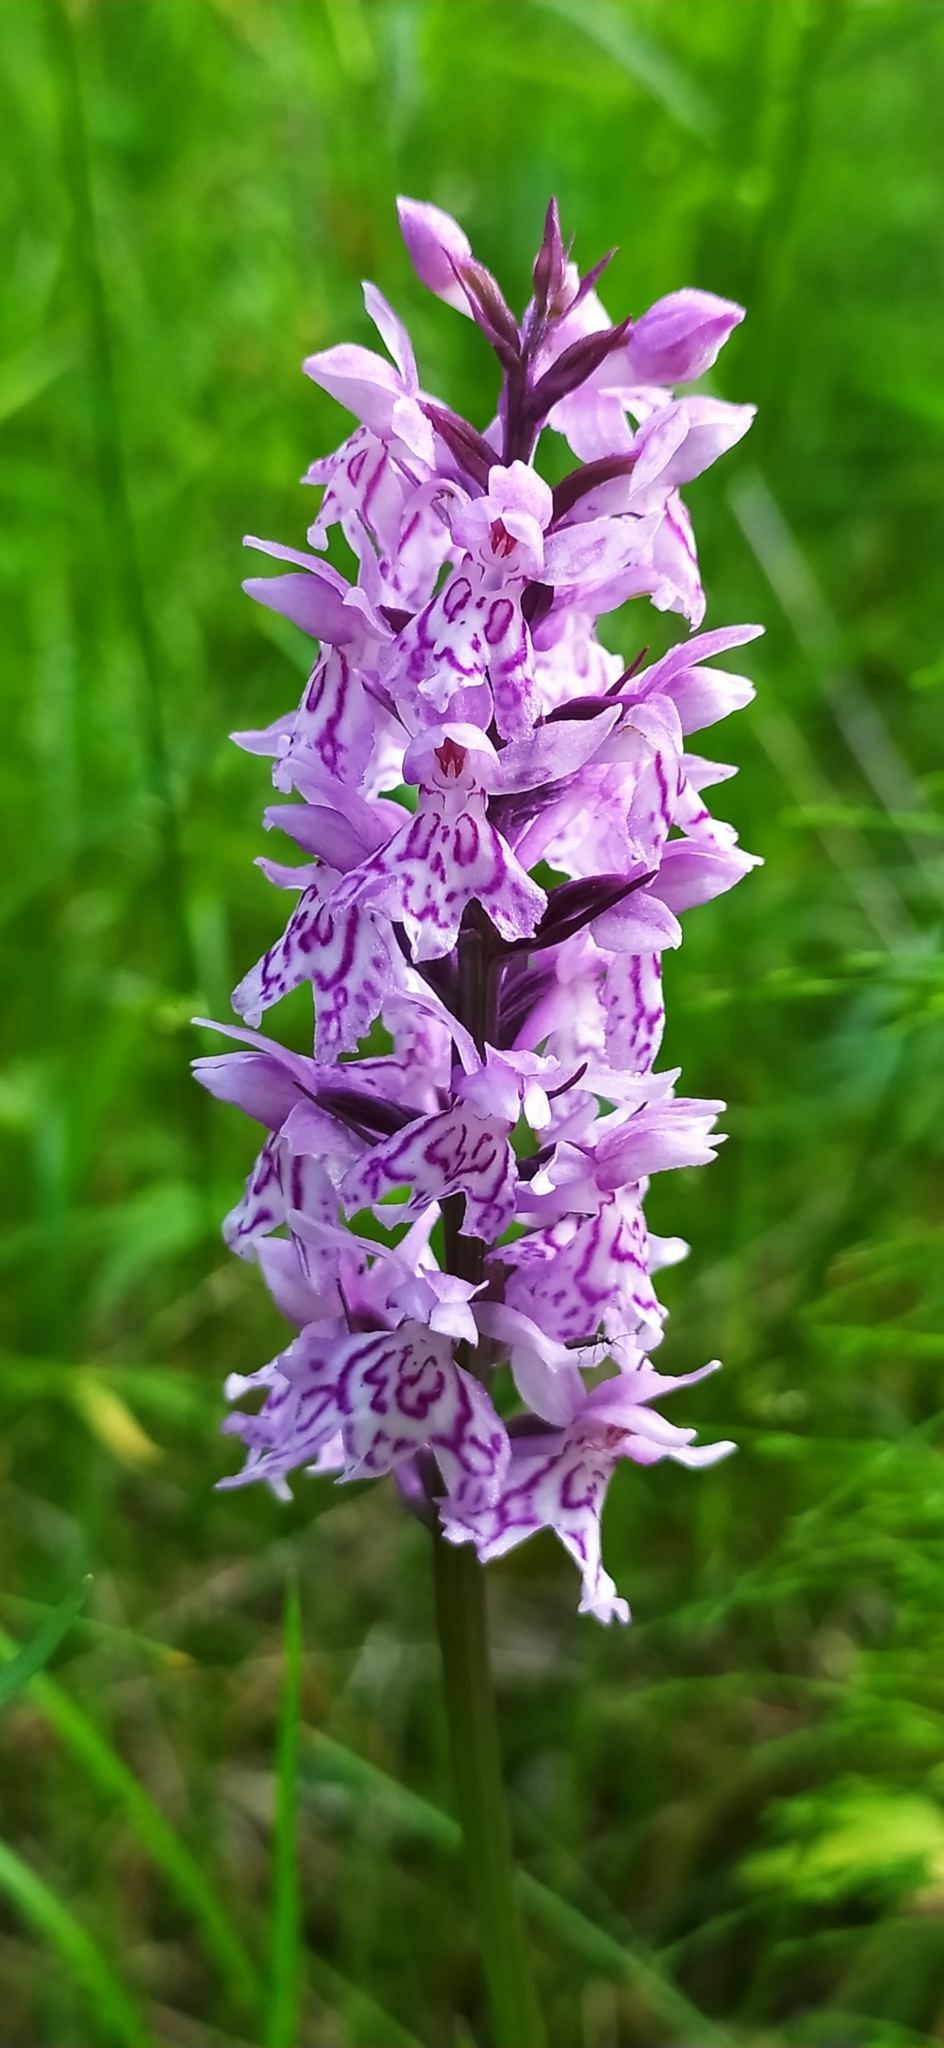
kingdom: Plantae
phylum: Tracheophyta
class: Liliopsida
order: Asparagales
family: Orchidaceae
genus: Dactylorhiza
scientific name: Dactylorhiza maculata
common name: Heath spotted-orchid
